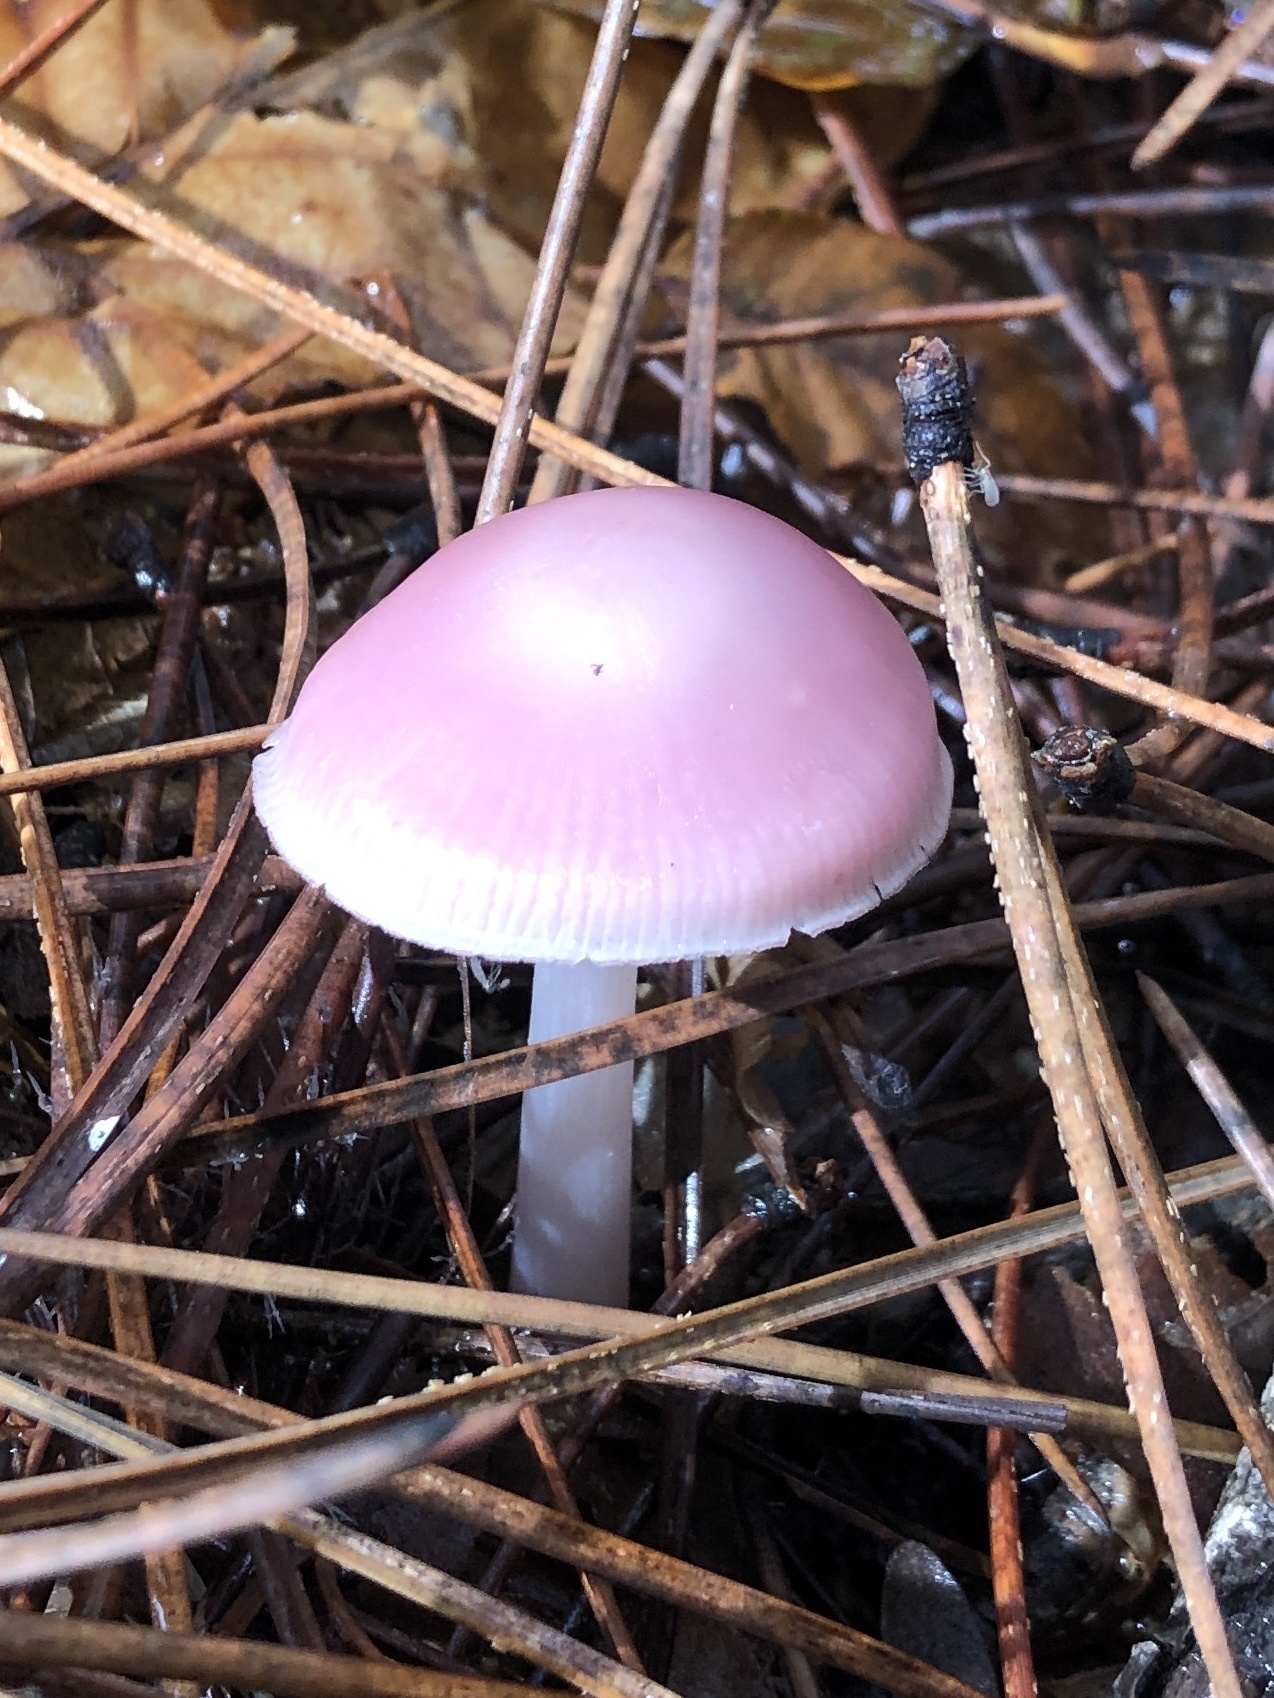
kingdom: Fungi
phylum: Basidiomycota
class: Agaricomycetes
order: Agaricales
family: Mycenaceae
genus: Mycena
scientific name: Mycena rosea
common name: Rosy bonnet
